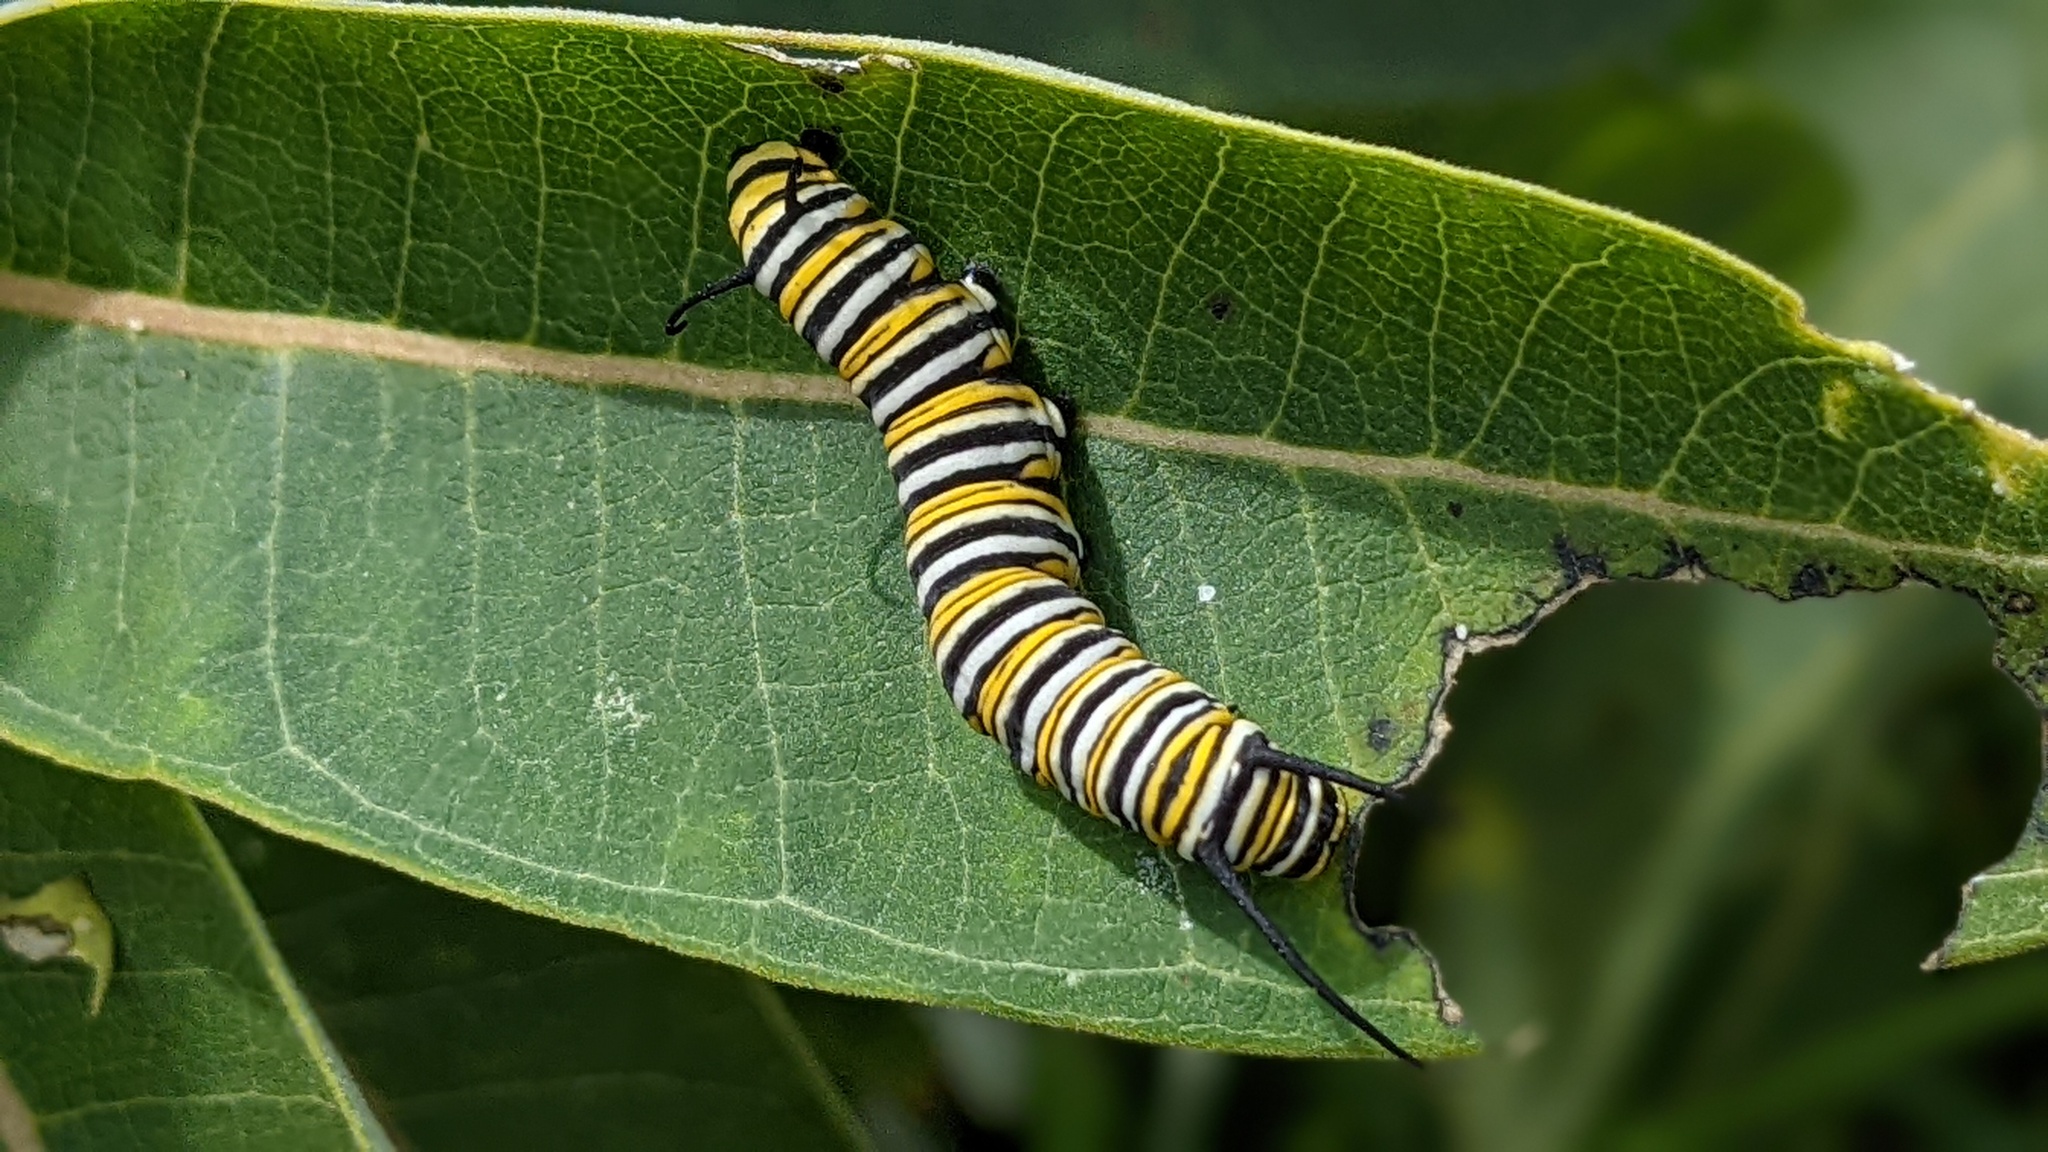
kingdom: Animalia
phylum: Arthropoda
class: Insecta
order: Lepidoptera
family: Nymphalidae
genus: Danaus
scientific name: Danaus plexippus
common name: Monarch
